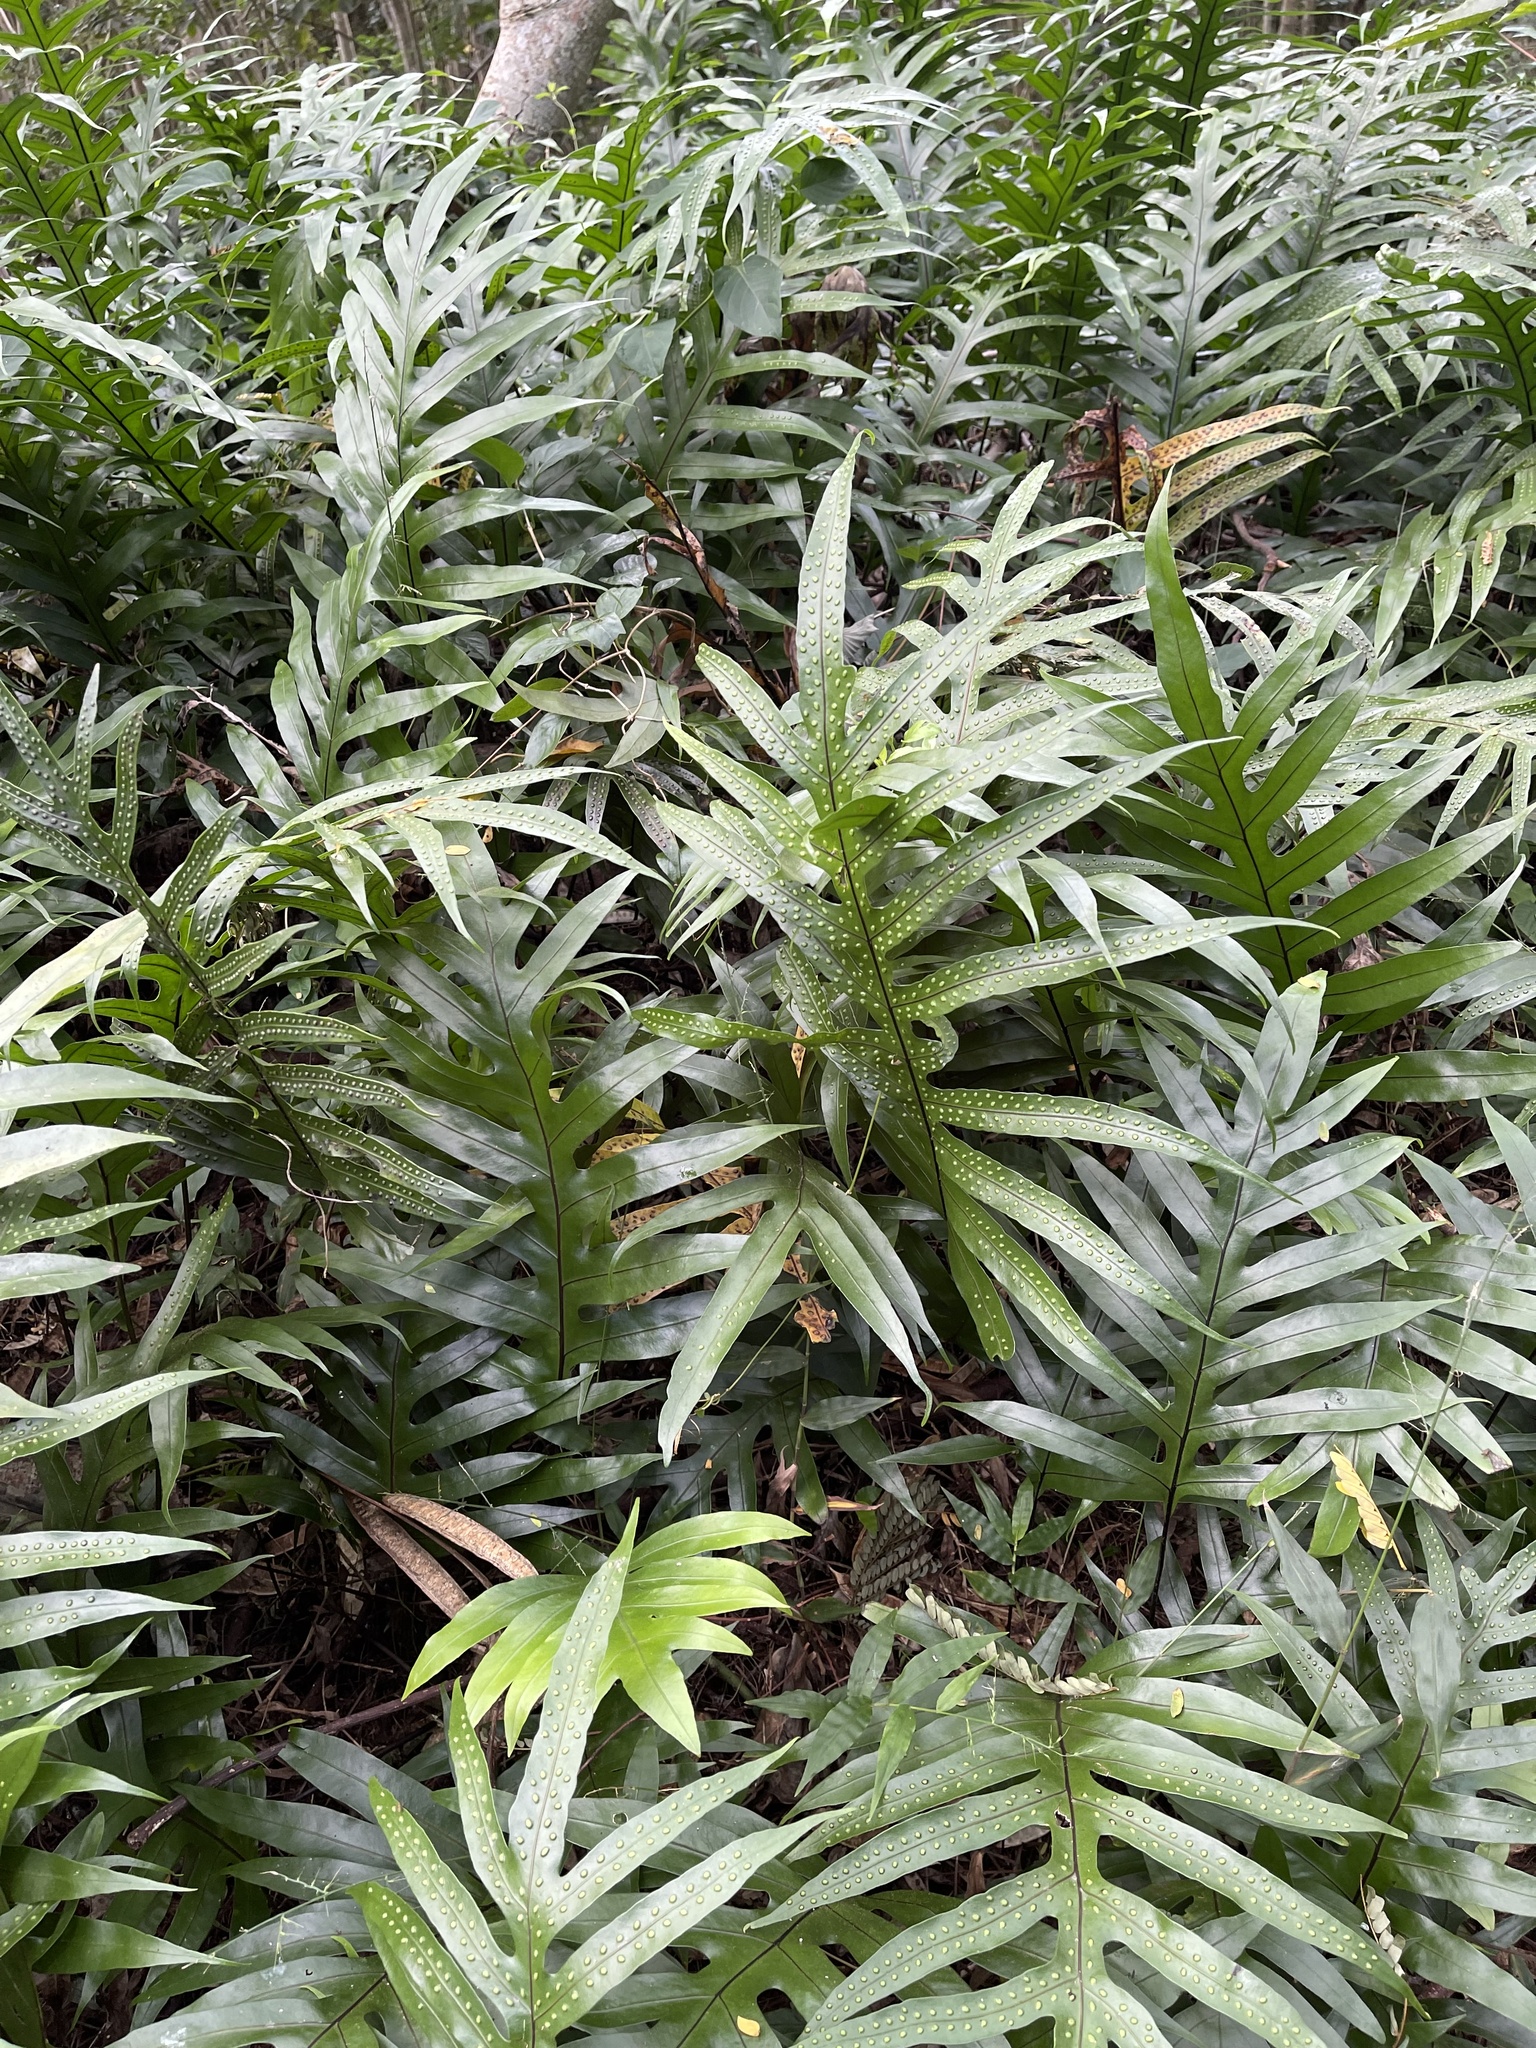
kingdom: Plantae
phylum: Tracheophyta
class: Polypodiopsida
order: Polypodiales
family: Polypodiaceae
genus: Microsorum
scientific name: Microsorum grossum
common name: Musk fern
